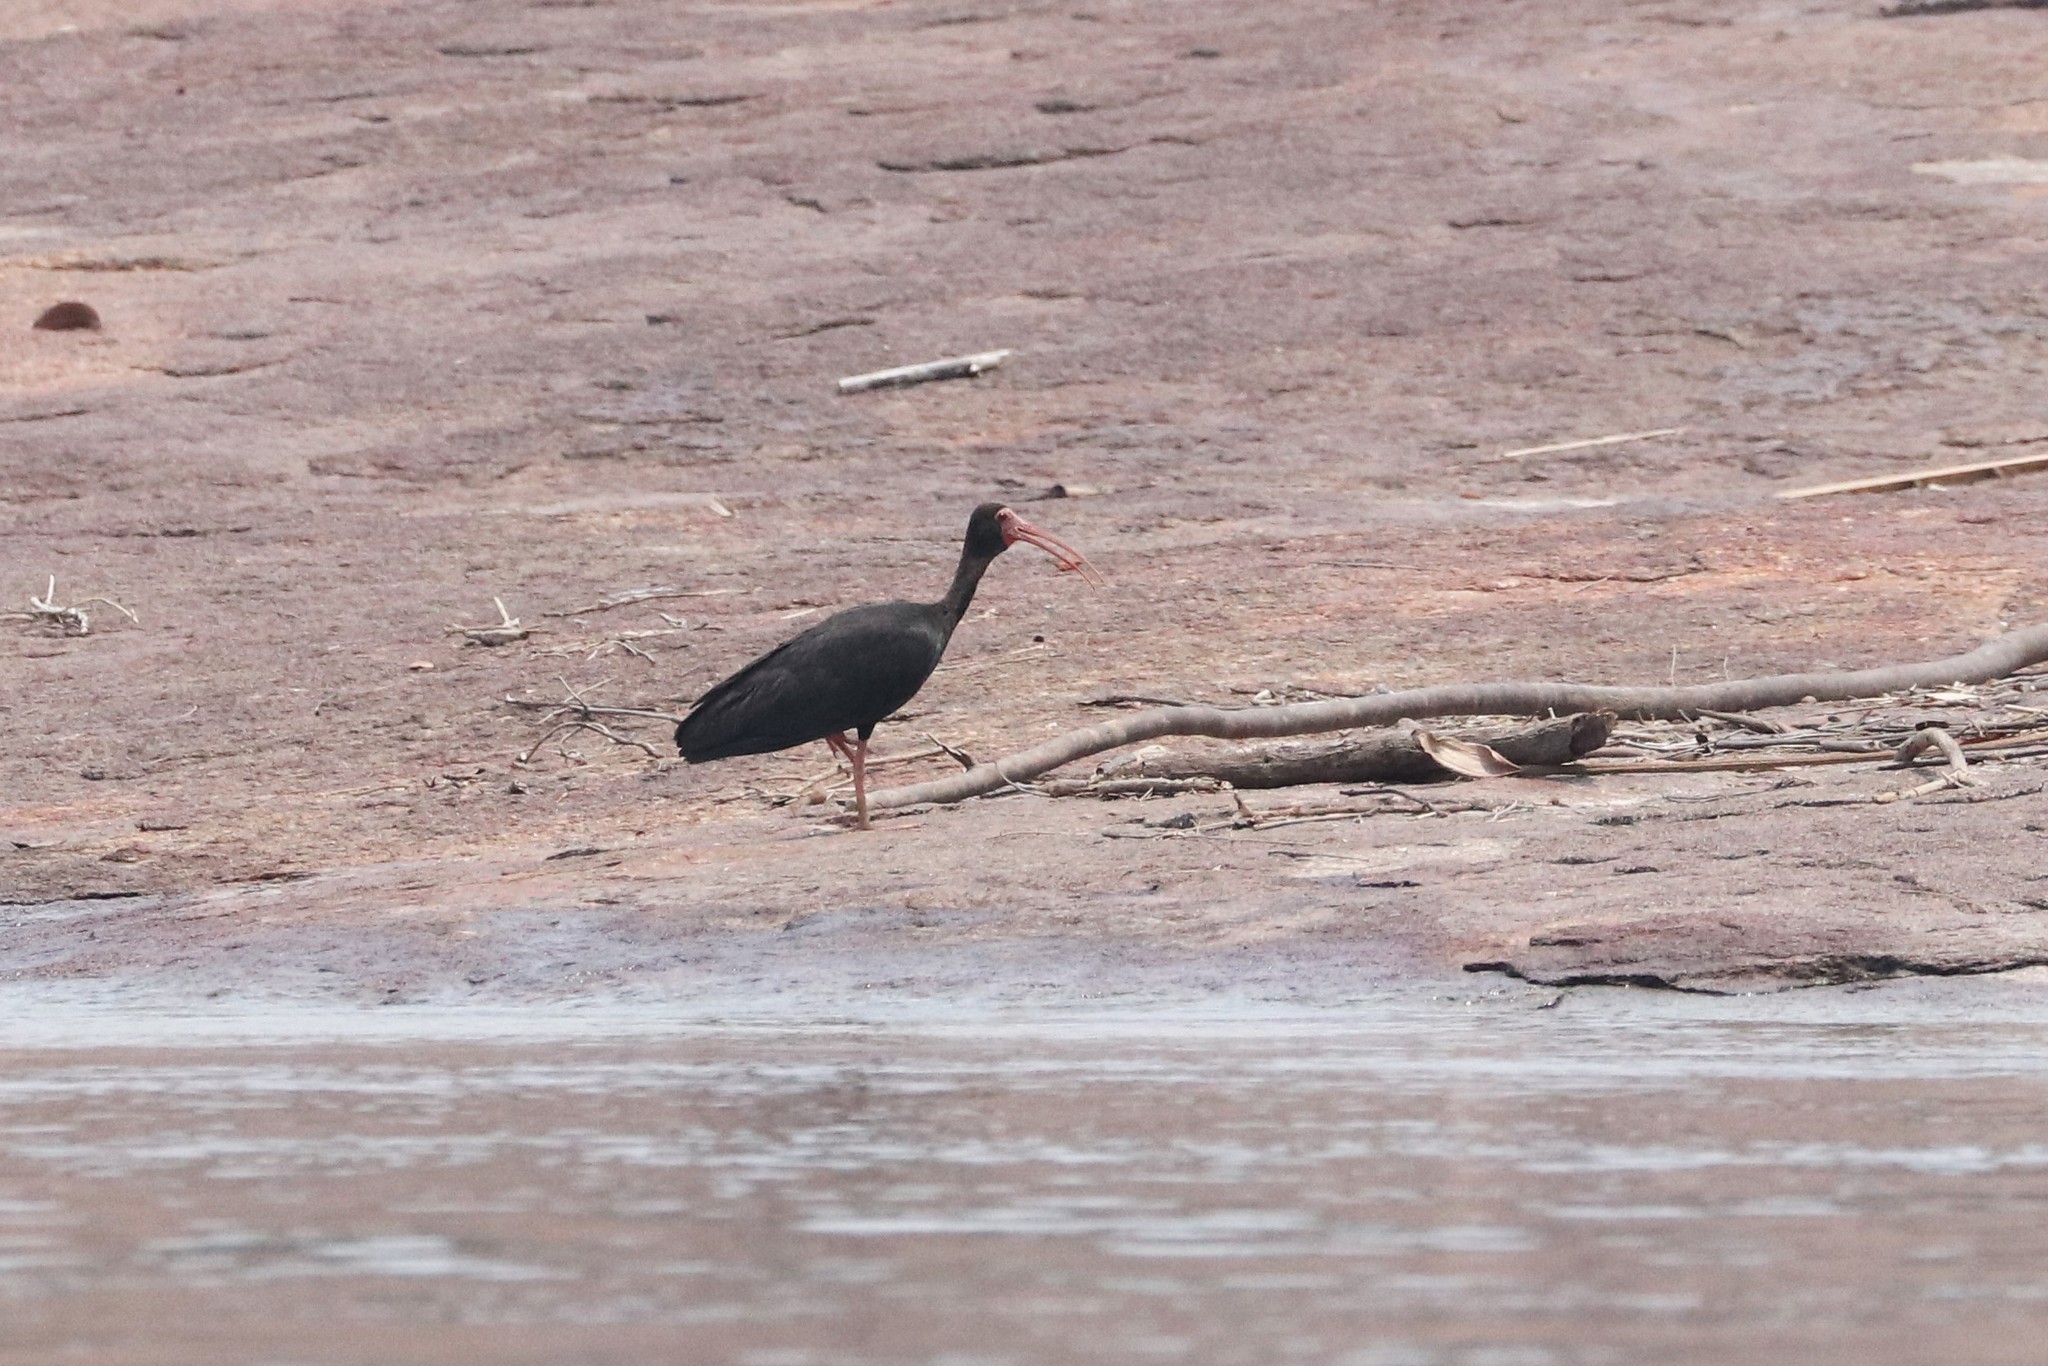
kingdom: Animalia
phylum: Chordata
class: Aves
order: Pelecaniformes
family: Threskiornithidae
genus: Phimosus
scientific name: Phimosus infuscatus
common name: Bare-faced ibis
